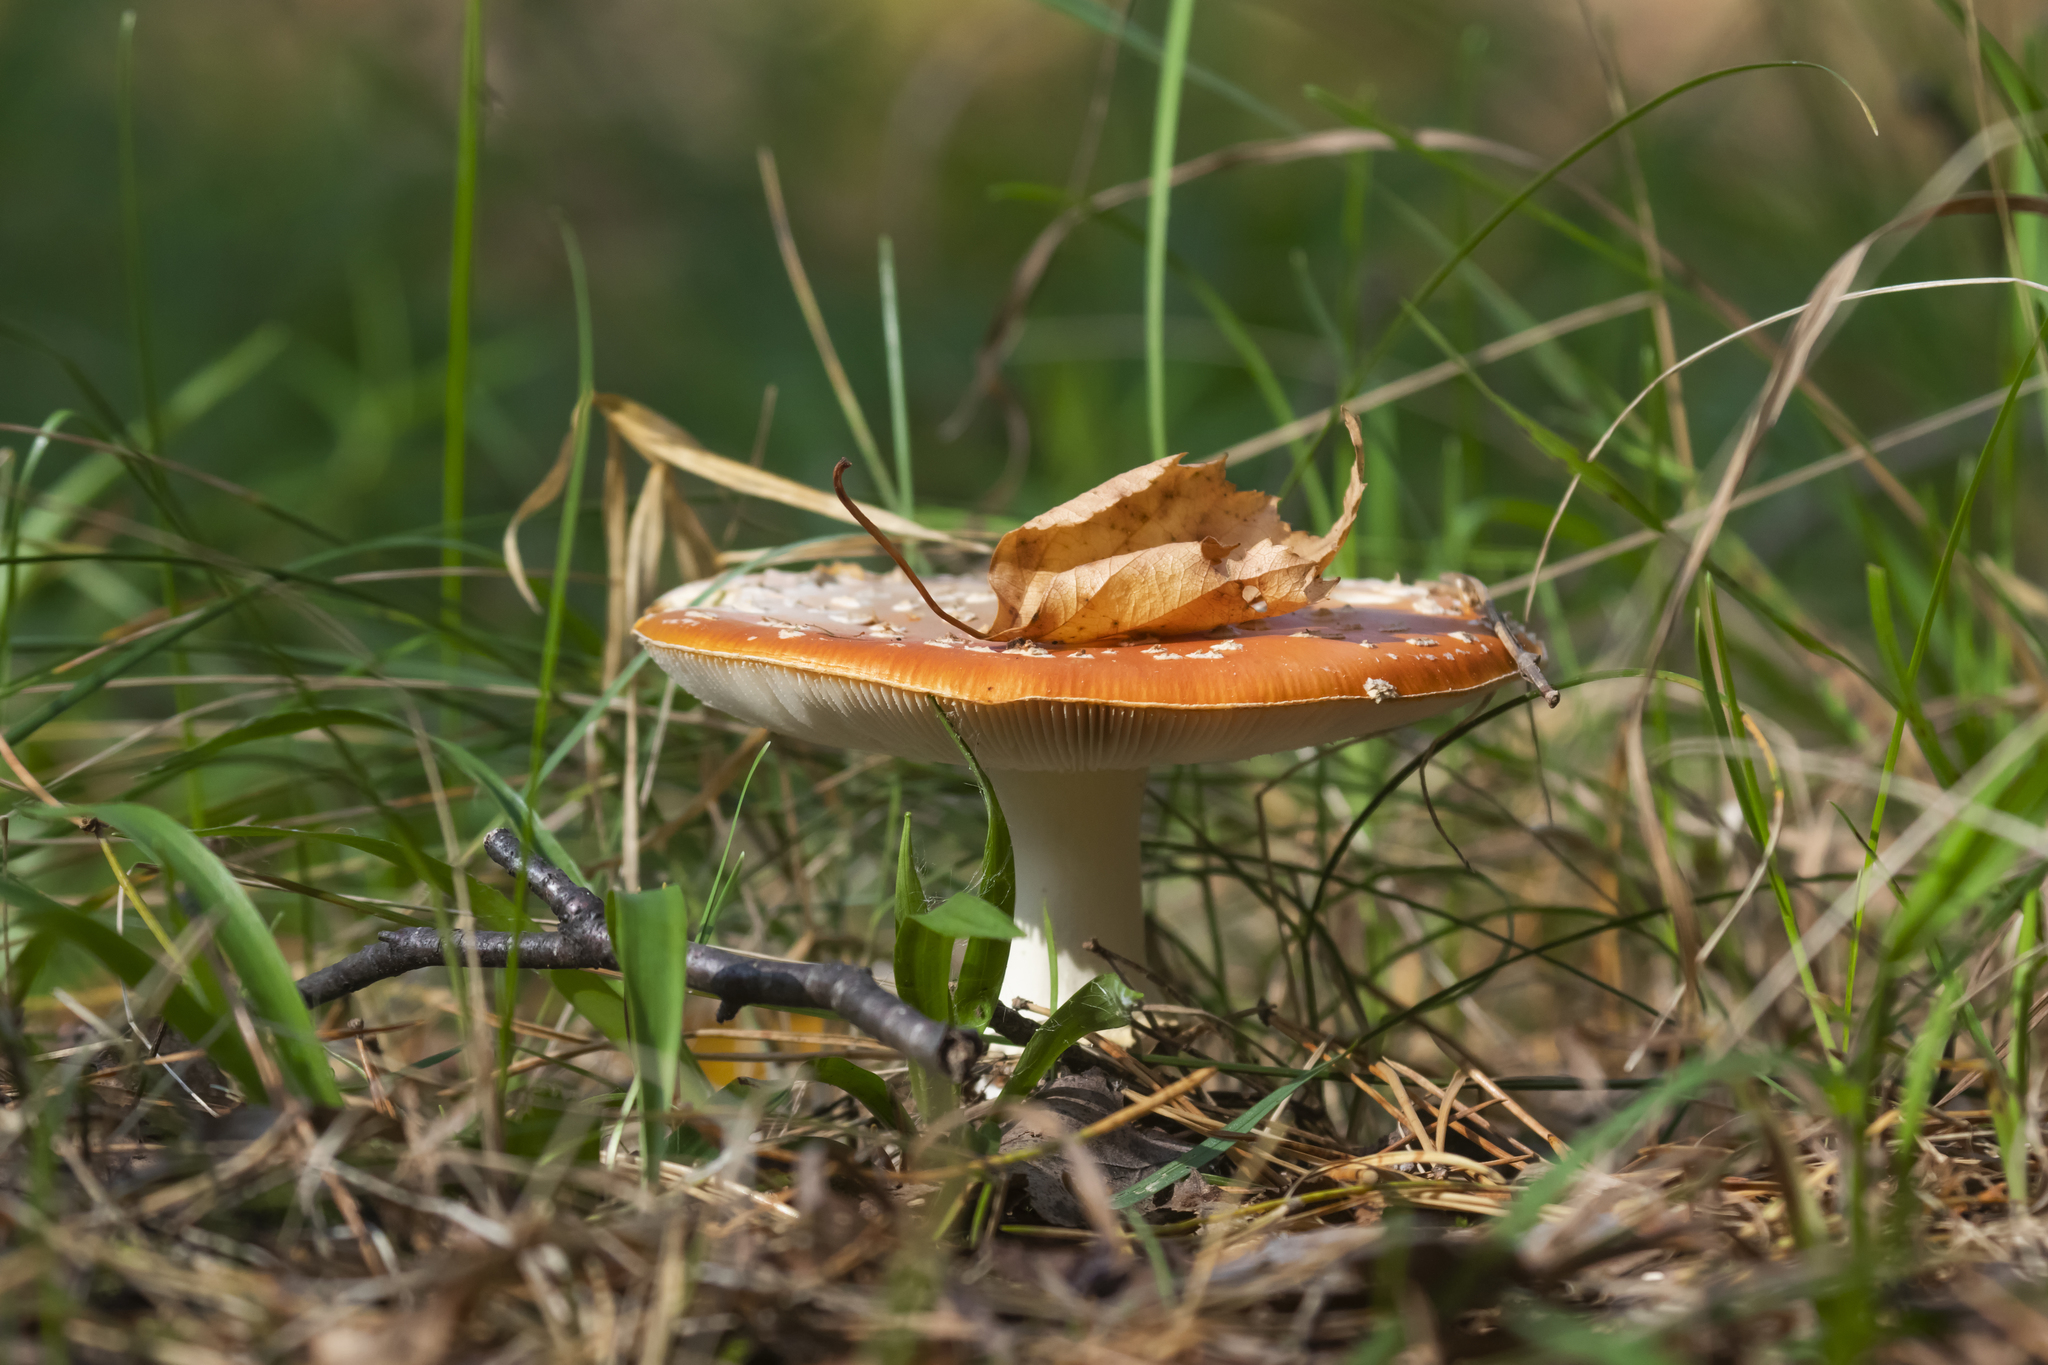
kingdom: Fungi
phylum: Basidiomycota
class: Agaricomycetes
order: Agaricales
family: Amanitaceae
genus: Amanita
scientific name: Amanita muscaria
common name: Fly agaric
